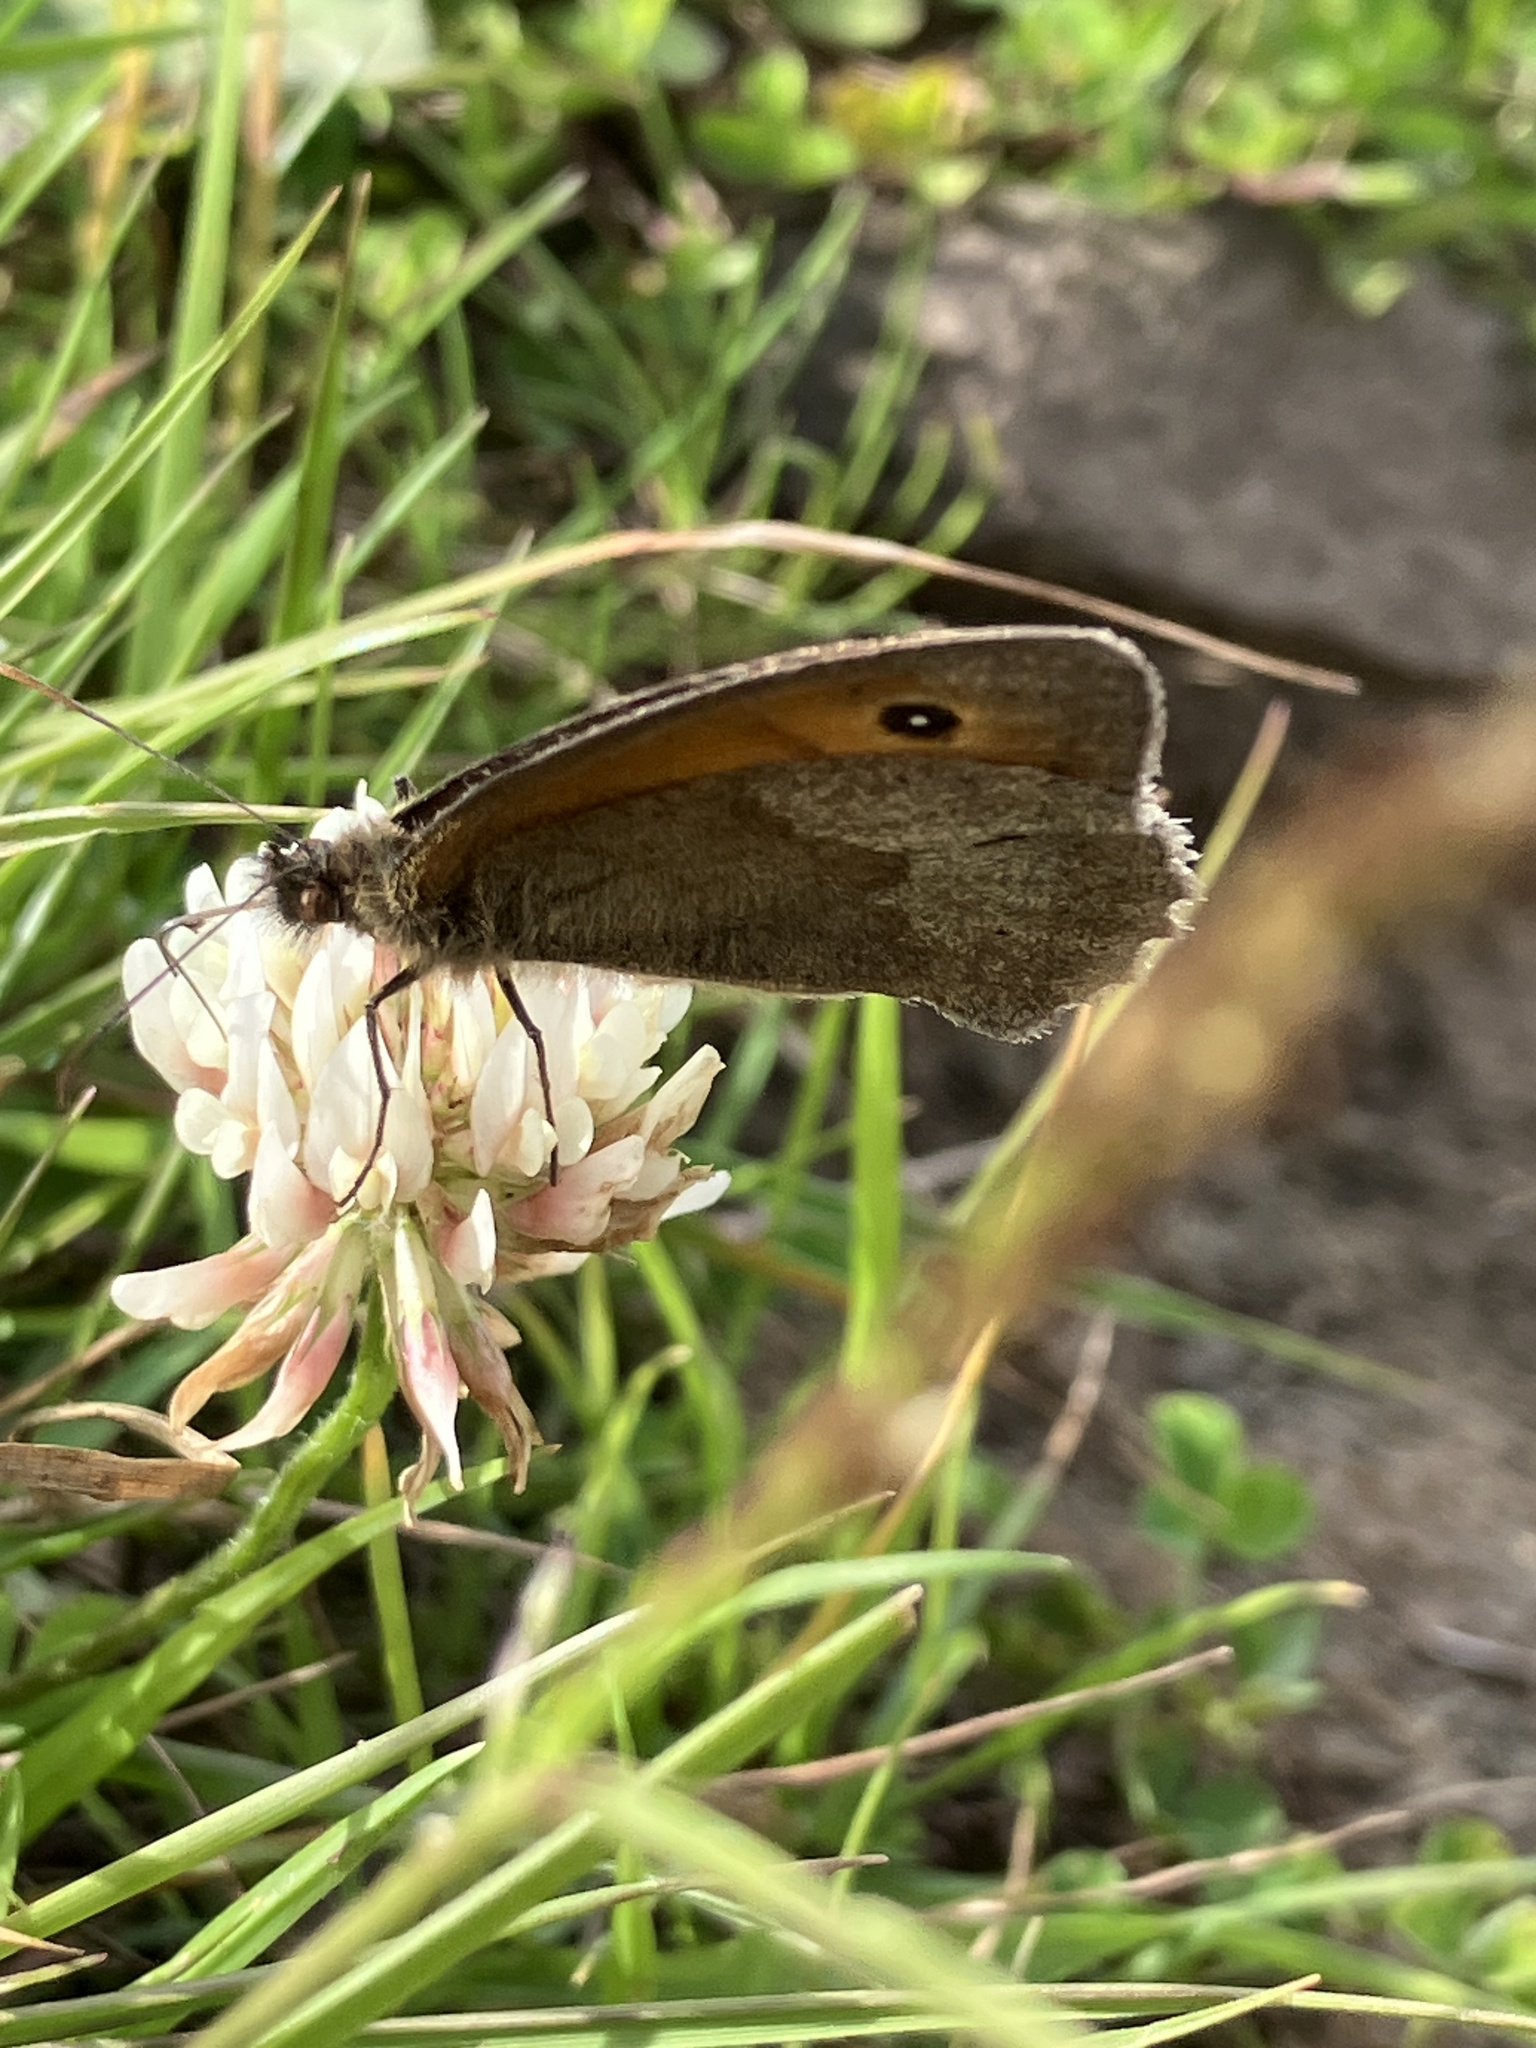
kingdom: Animalia
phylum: Arthropoda
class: Insecta
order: Lepidoptera
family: Nymphalidae
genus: Maniola
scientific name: Maniola jurtina
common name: Meadow brown
